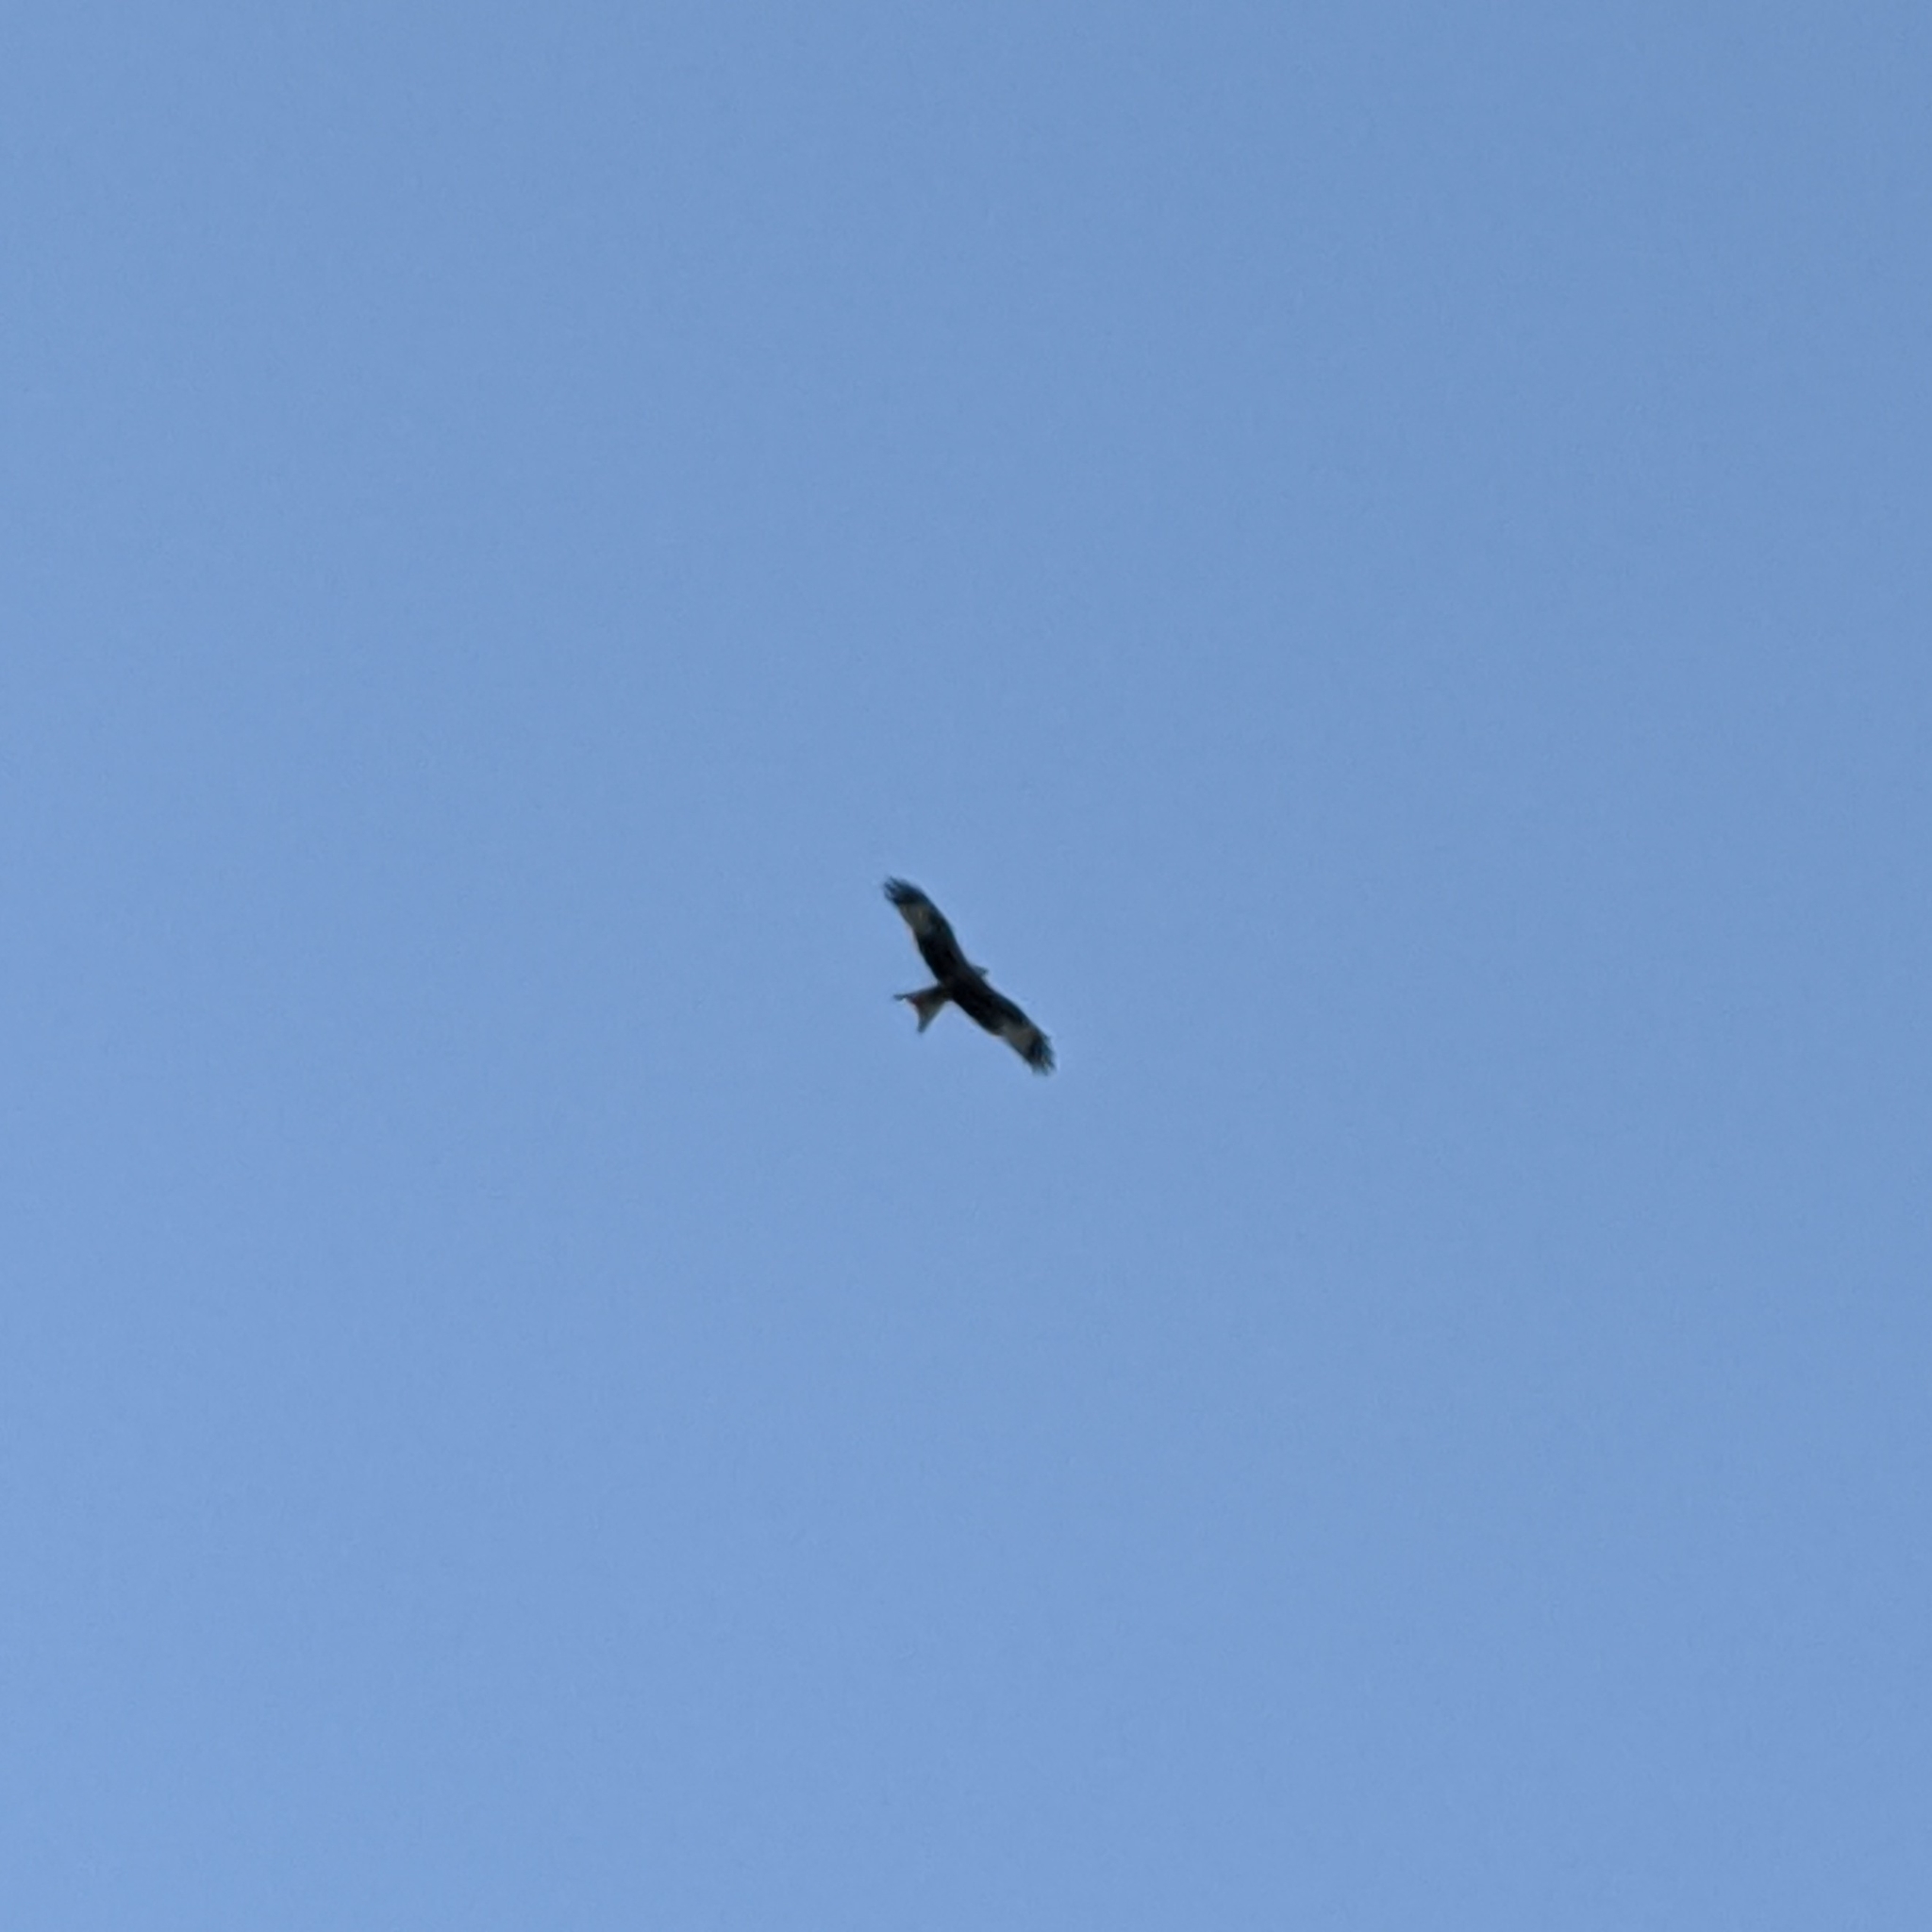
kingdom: Animalia
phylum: Chordata
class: Aves
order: Accipitriformes
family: Accipitridae
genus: Milvus
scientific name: Milvus milvus
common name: Red kite
